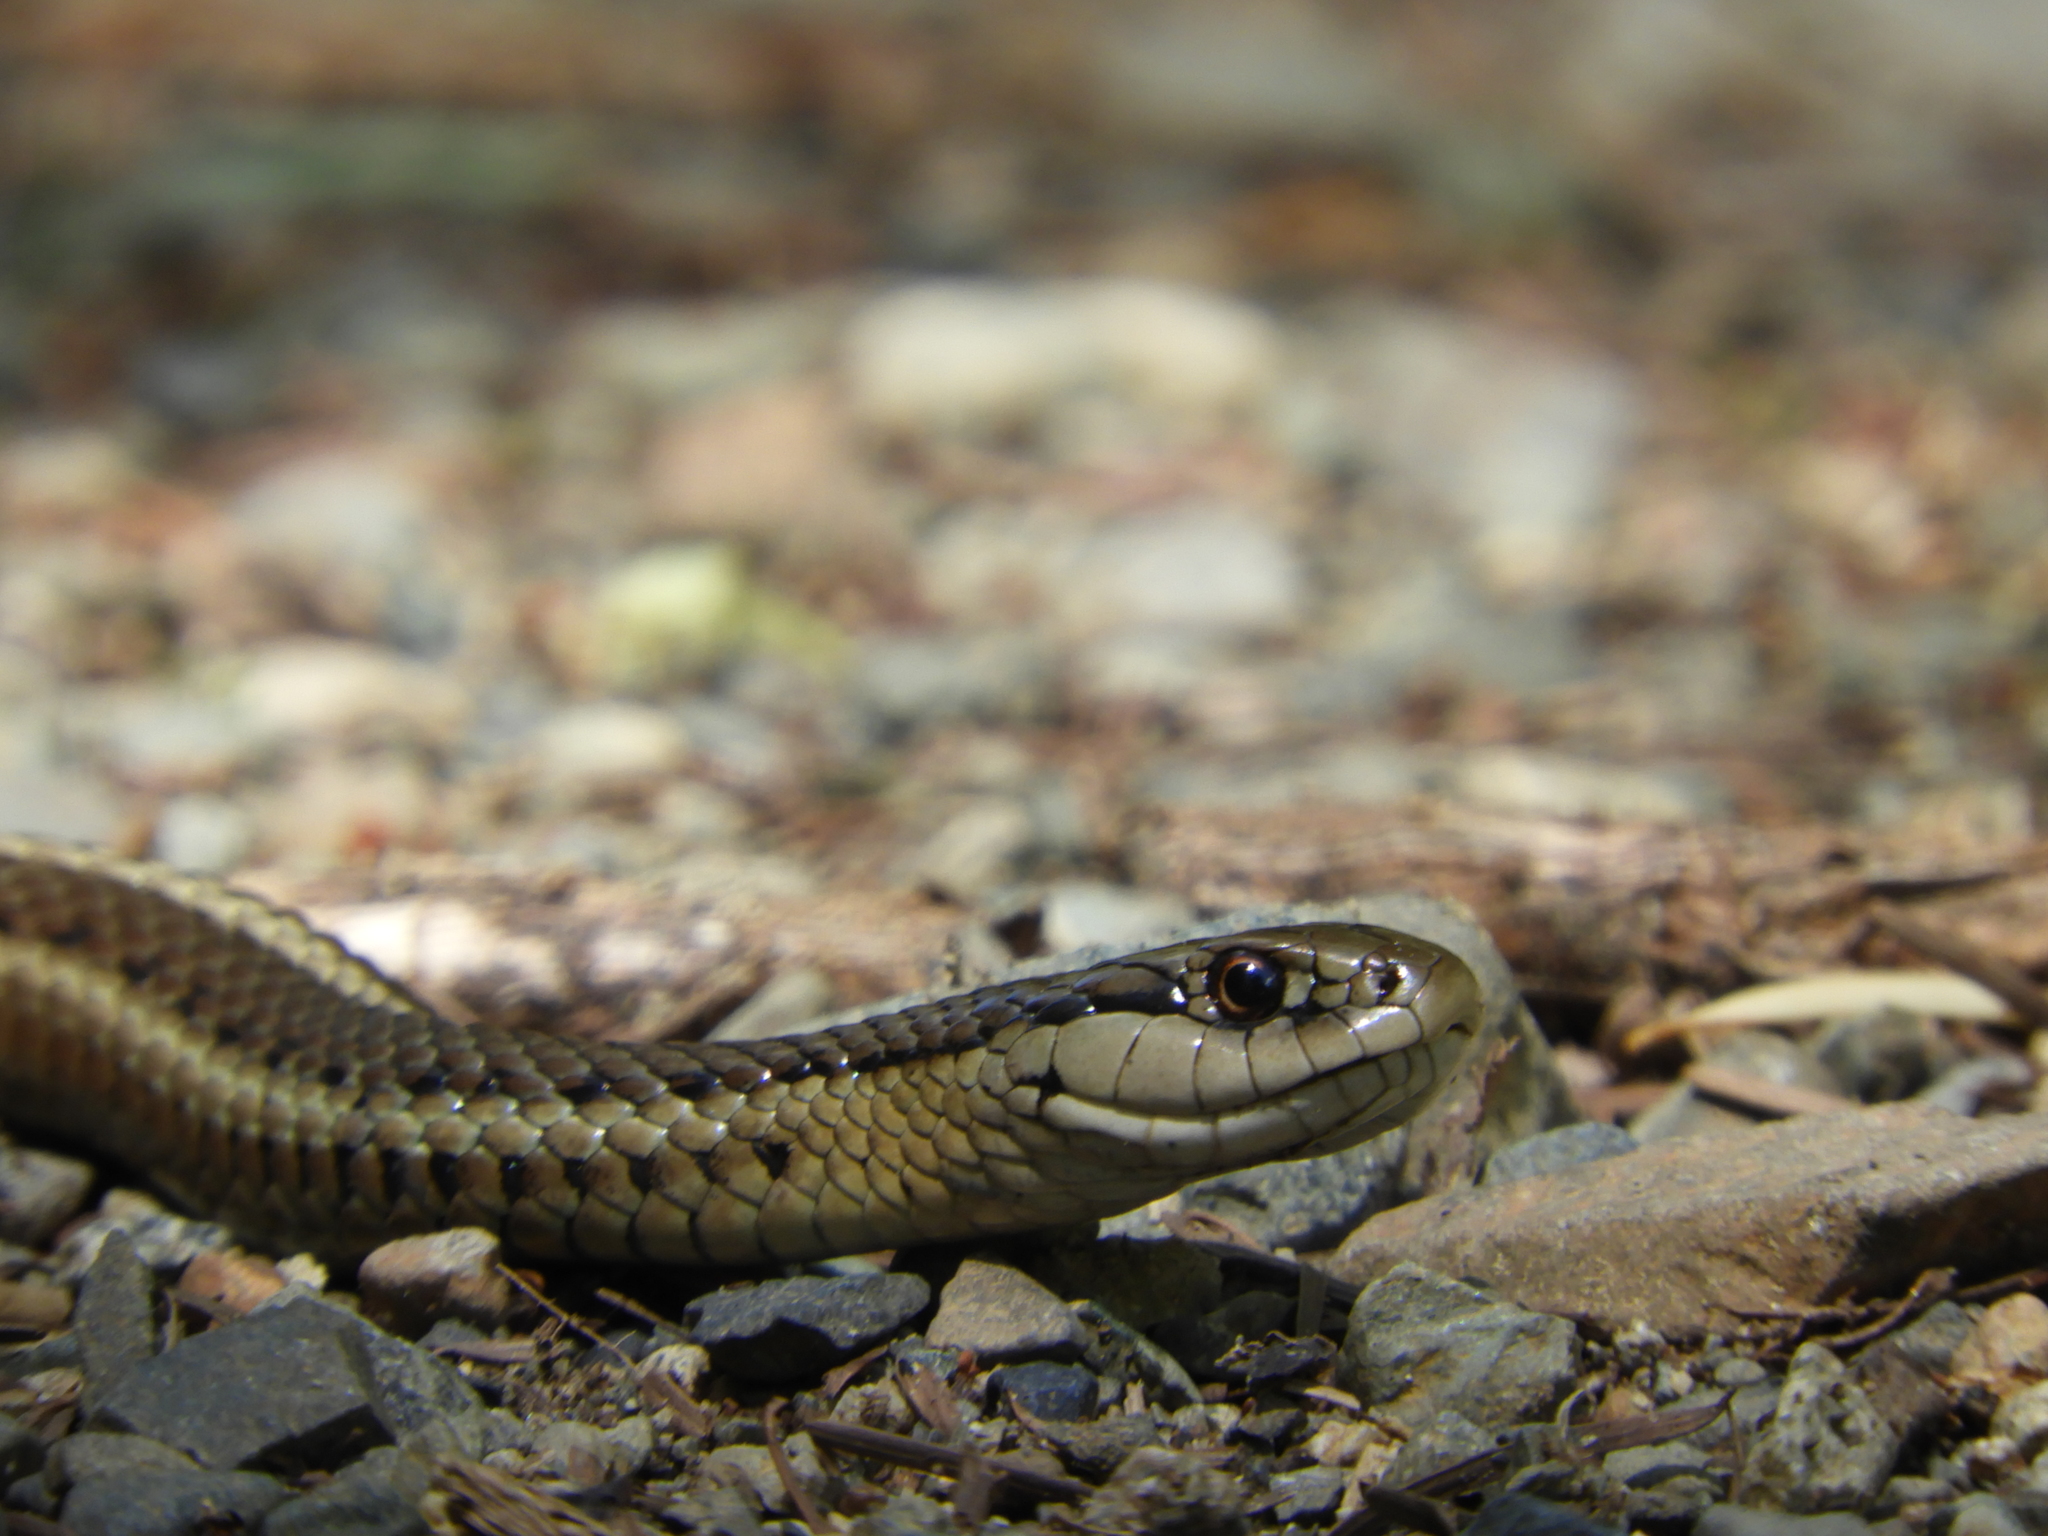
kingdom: Animalia
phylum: Chordata
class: Squamata
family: Colubridae
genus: Thamnophis
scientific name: Thamnophis ordinoides
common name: Northwestern garter snake
